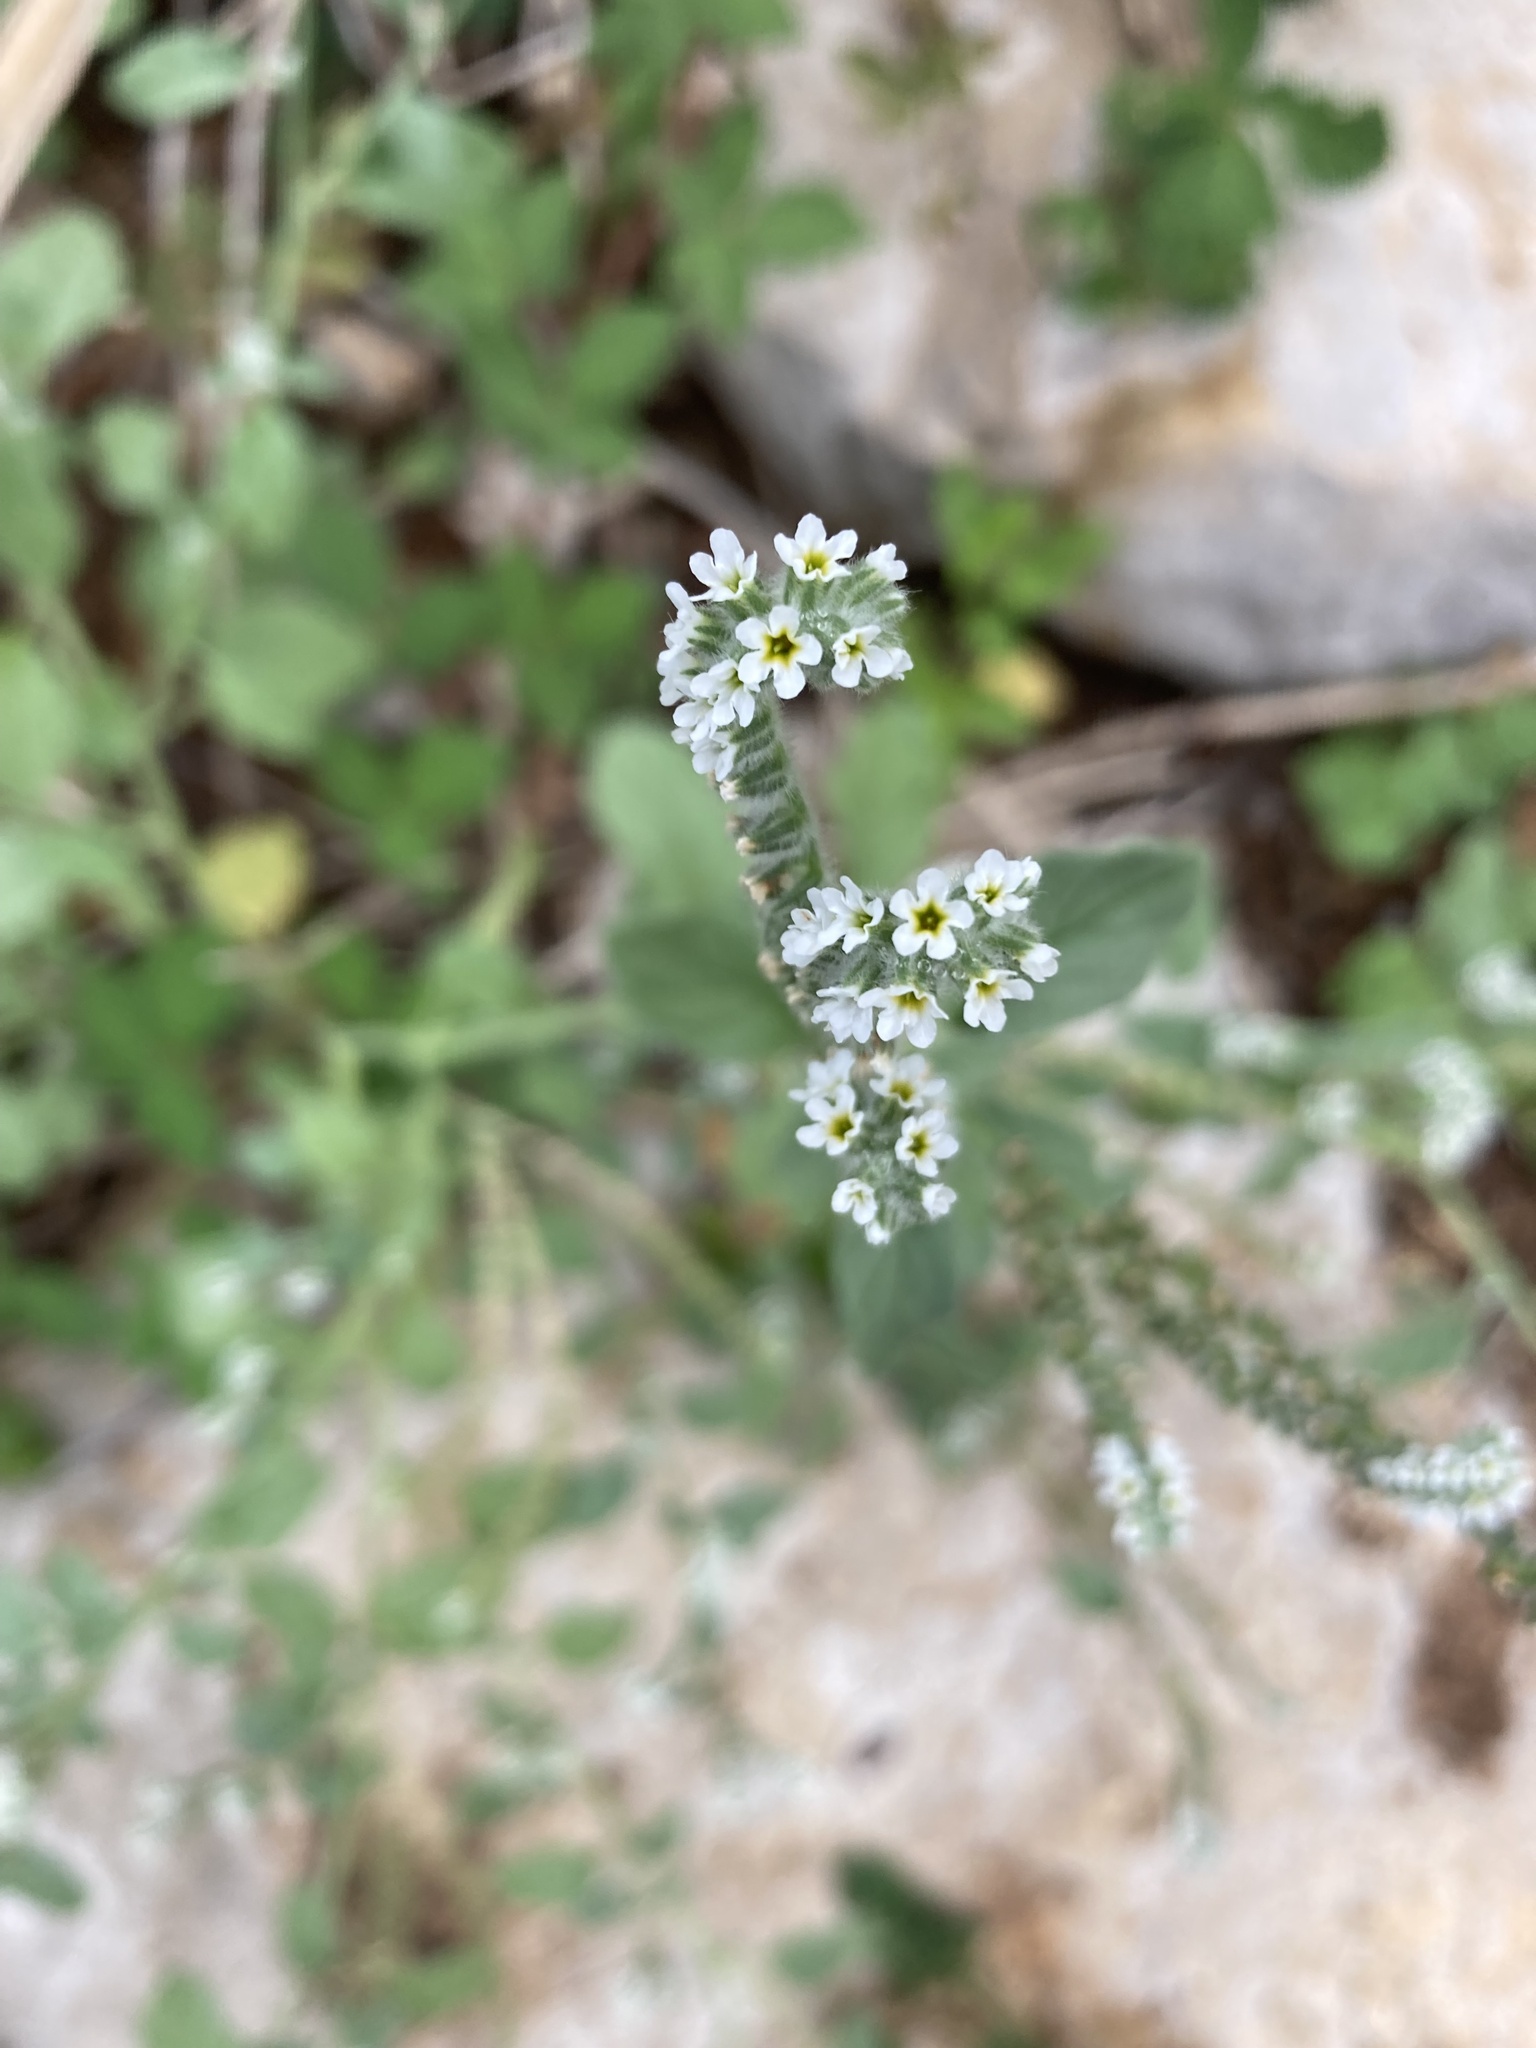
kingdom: Plantae
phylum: Tracheophyta
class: Magnoliopsida
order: Boraginales
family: Heliotropiaceae
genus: Heliotropium
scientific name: Heliotropium europaeum
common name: European heliotrope
